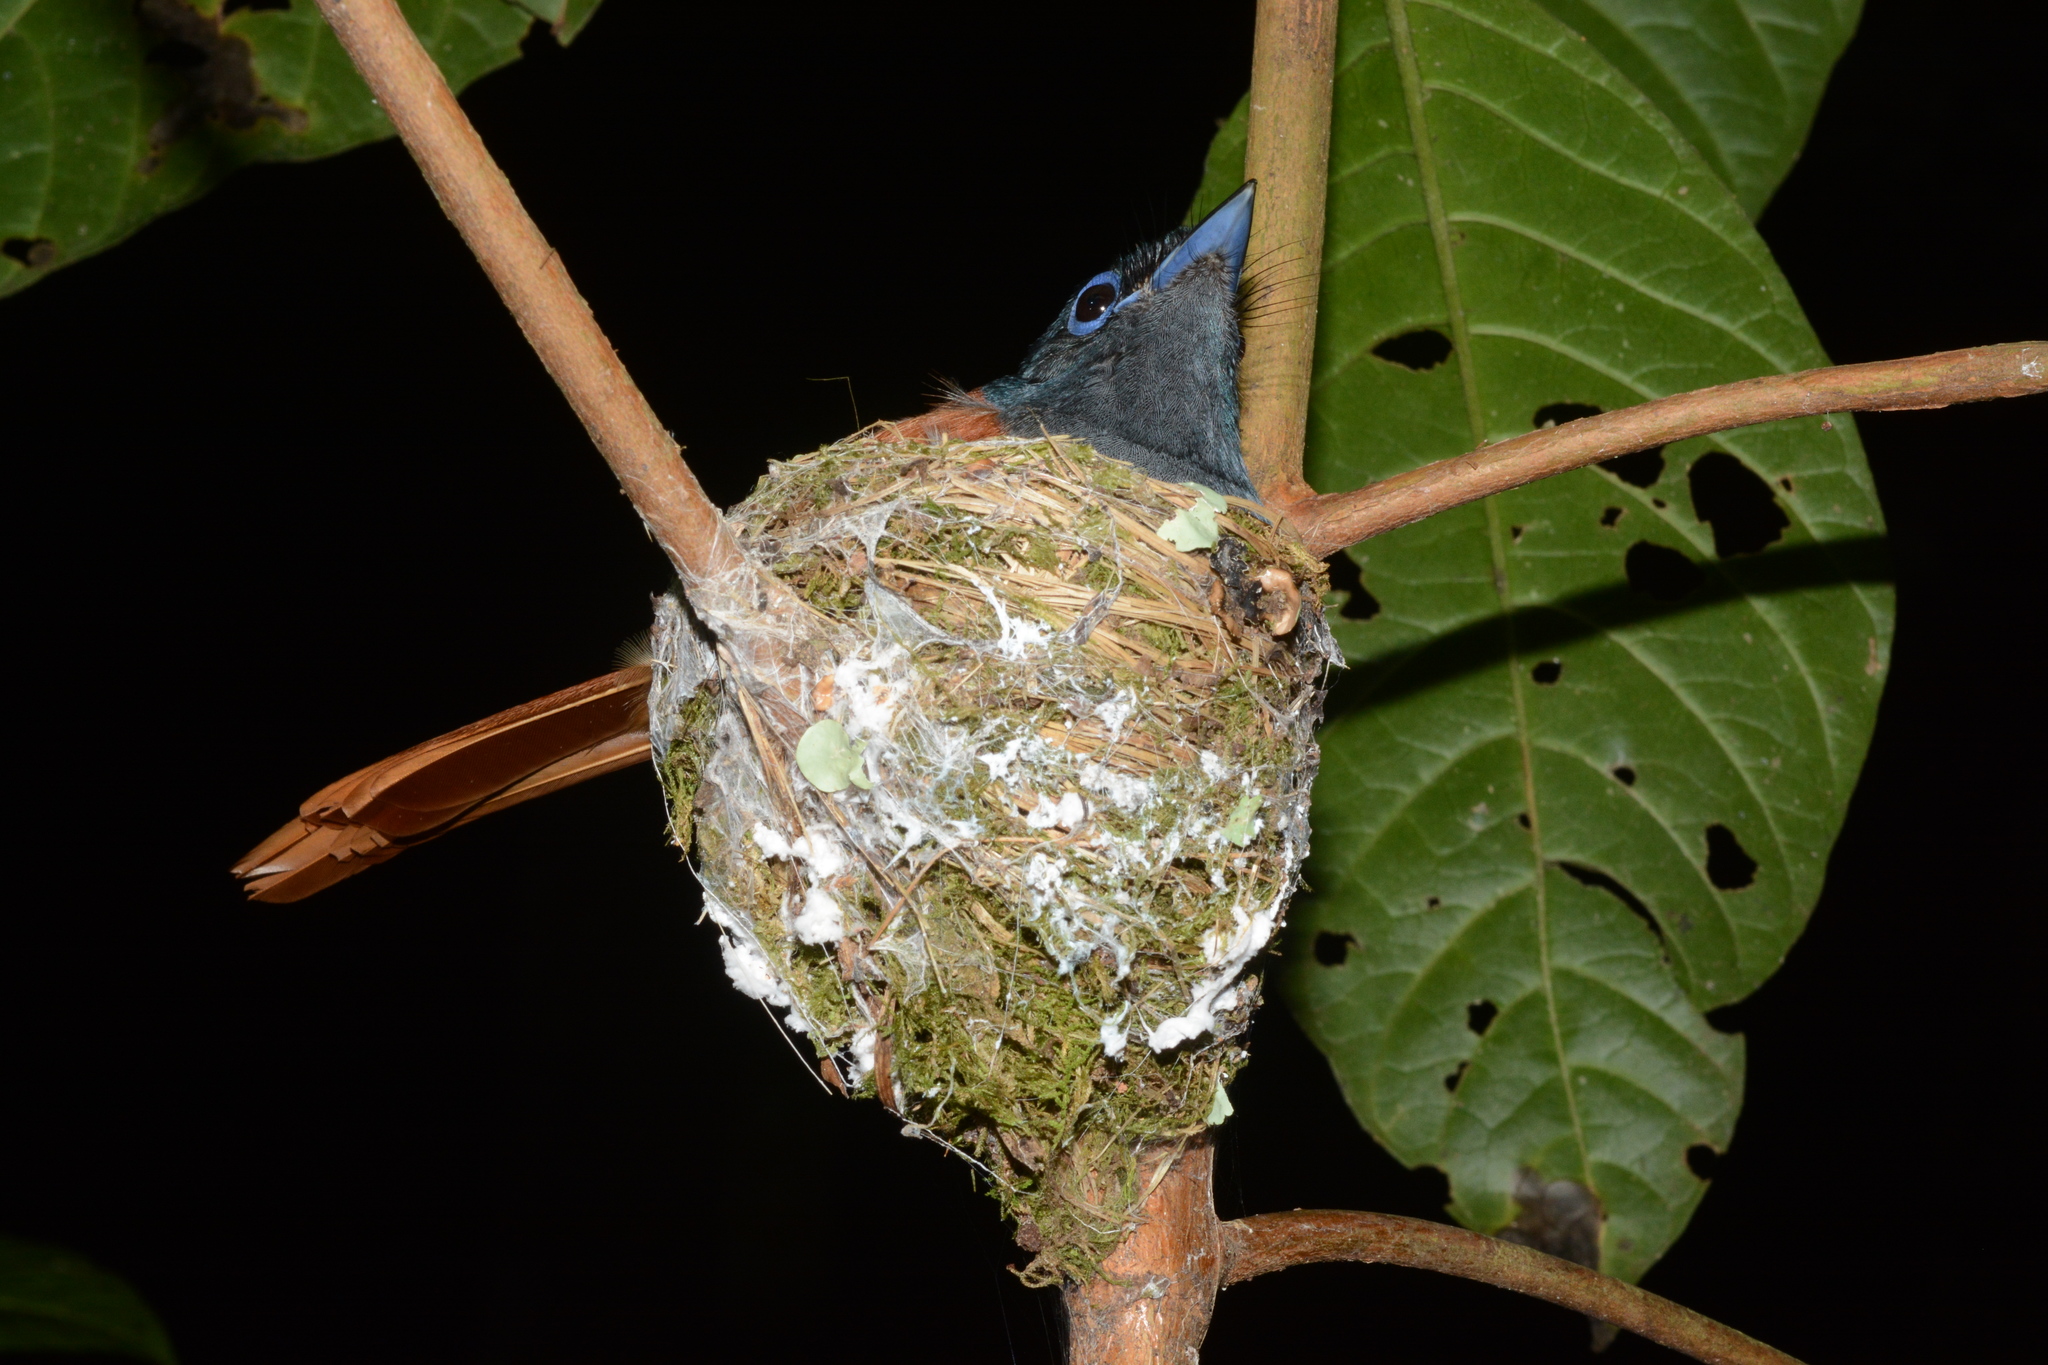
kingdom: Animalia
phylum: Chordata
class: Aves
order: Passeriformes
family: Monarchidae
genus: Terpsiphone
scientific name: Terpsiphone viridis
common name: African paradise flycatcher
